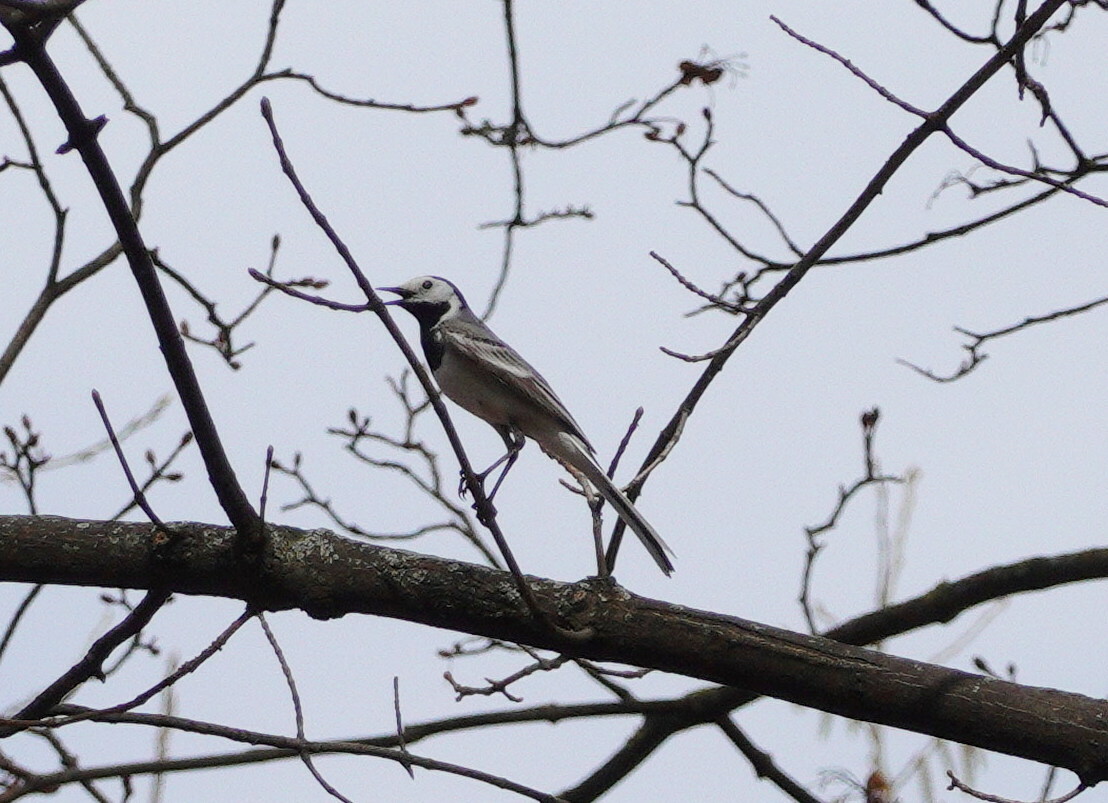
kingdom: Animalia
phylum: Chordata
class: Aves
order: Passeriformes
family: Motacillidae
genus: Motacilla
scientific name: Motacilla alba
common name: White wagtail
